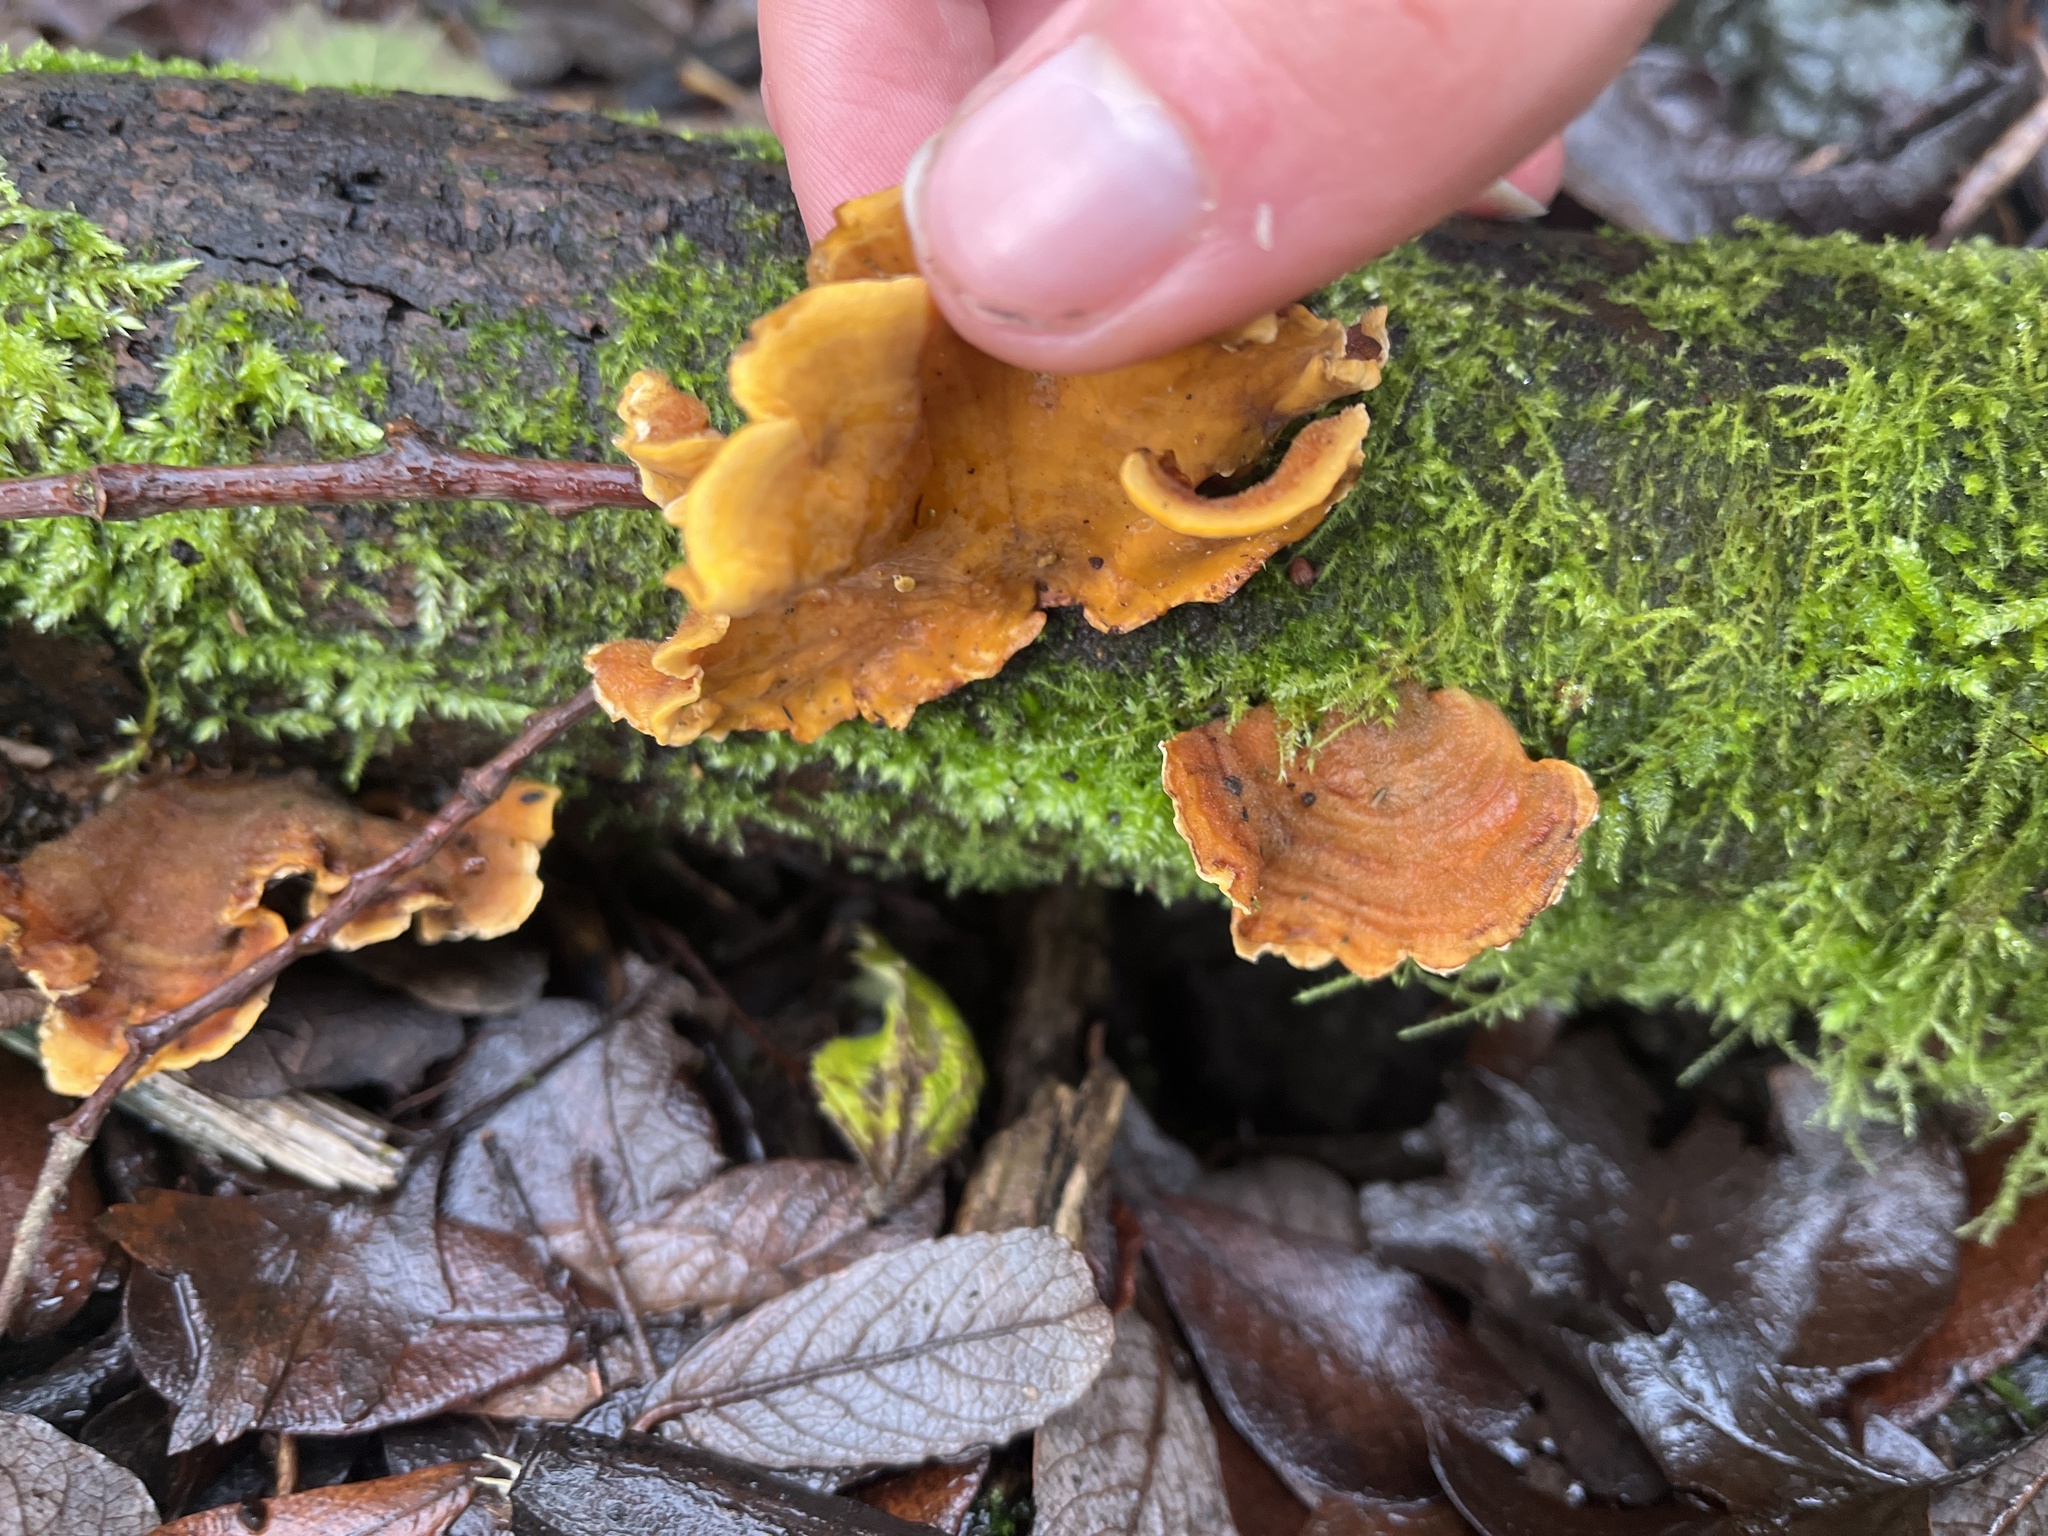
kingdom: Fungi
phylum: Basidiomycota
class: Agaricomycetes
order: Russulales
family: Stereaceae
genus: Stereum
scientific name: Stereum hirsutum
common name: Hairy curtain crust
